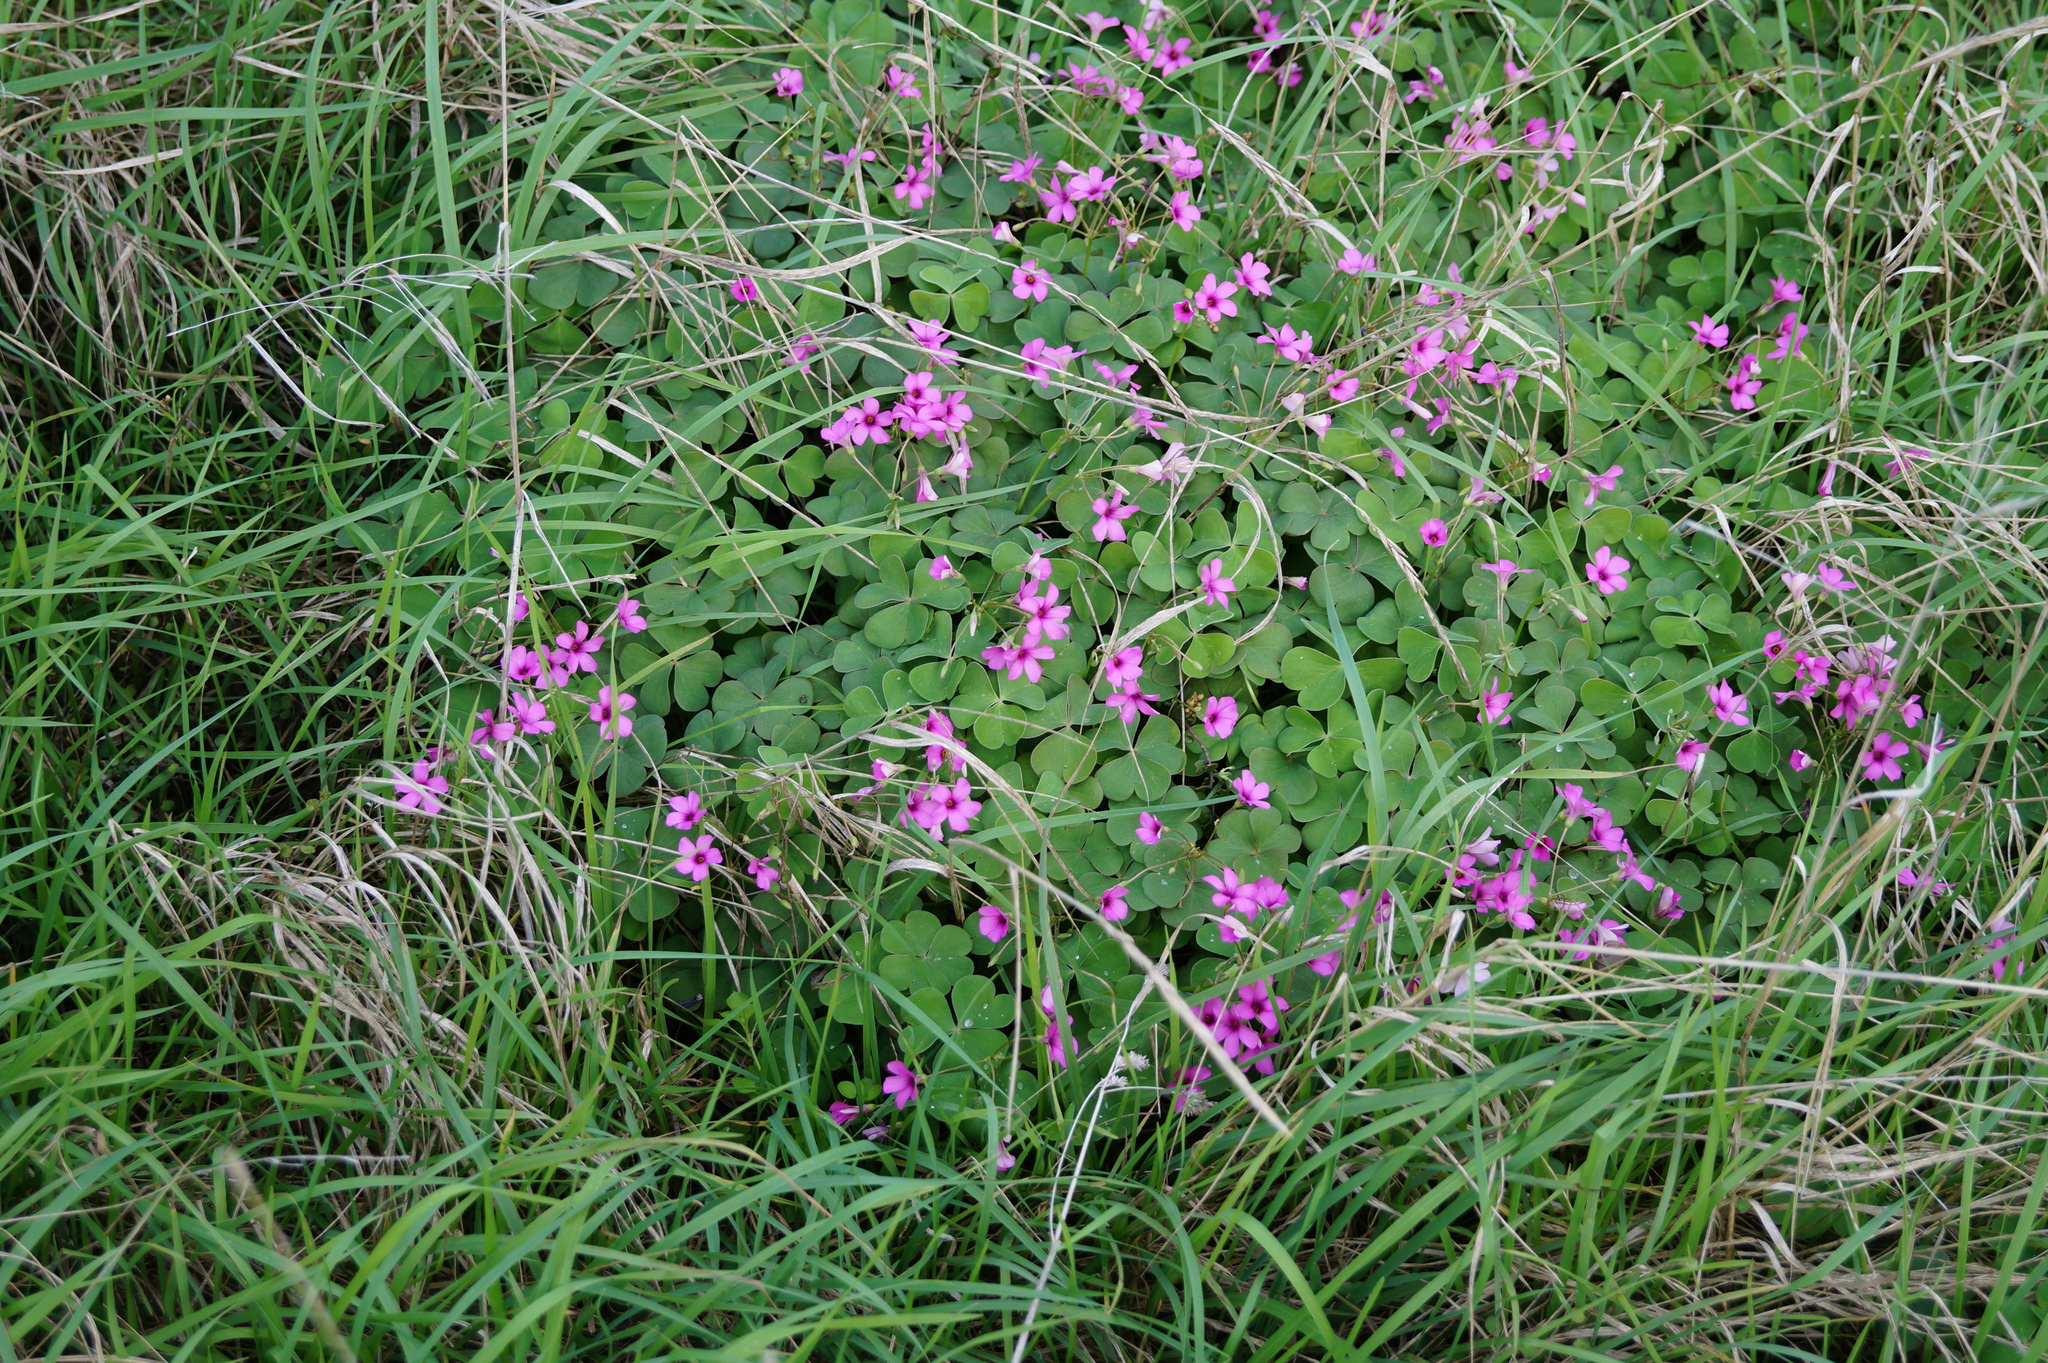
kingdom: Plantae
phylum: Tracheophyta
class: Magnoliopsida
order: Oxalidales
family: Oxalidaceae
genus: Oxalis
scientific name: Oxalis articulata
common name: Pink-sorrel
